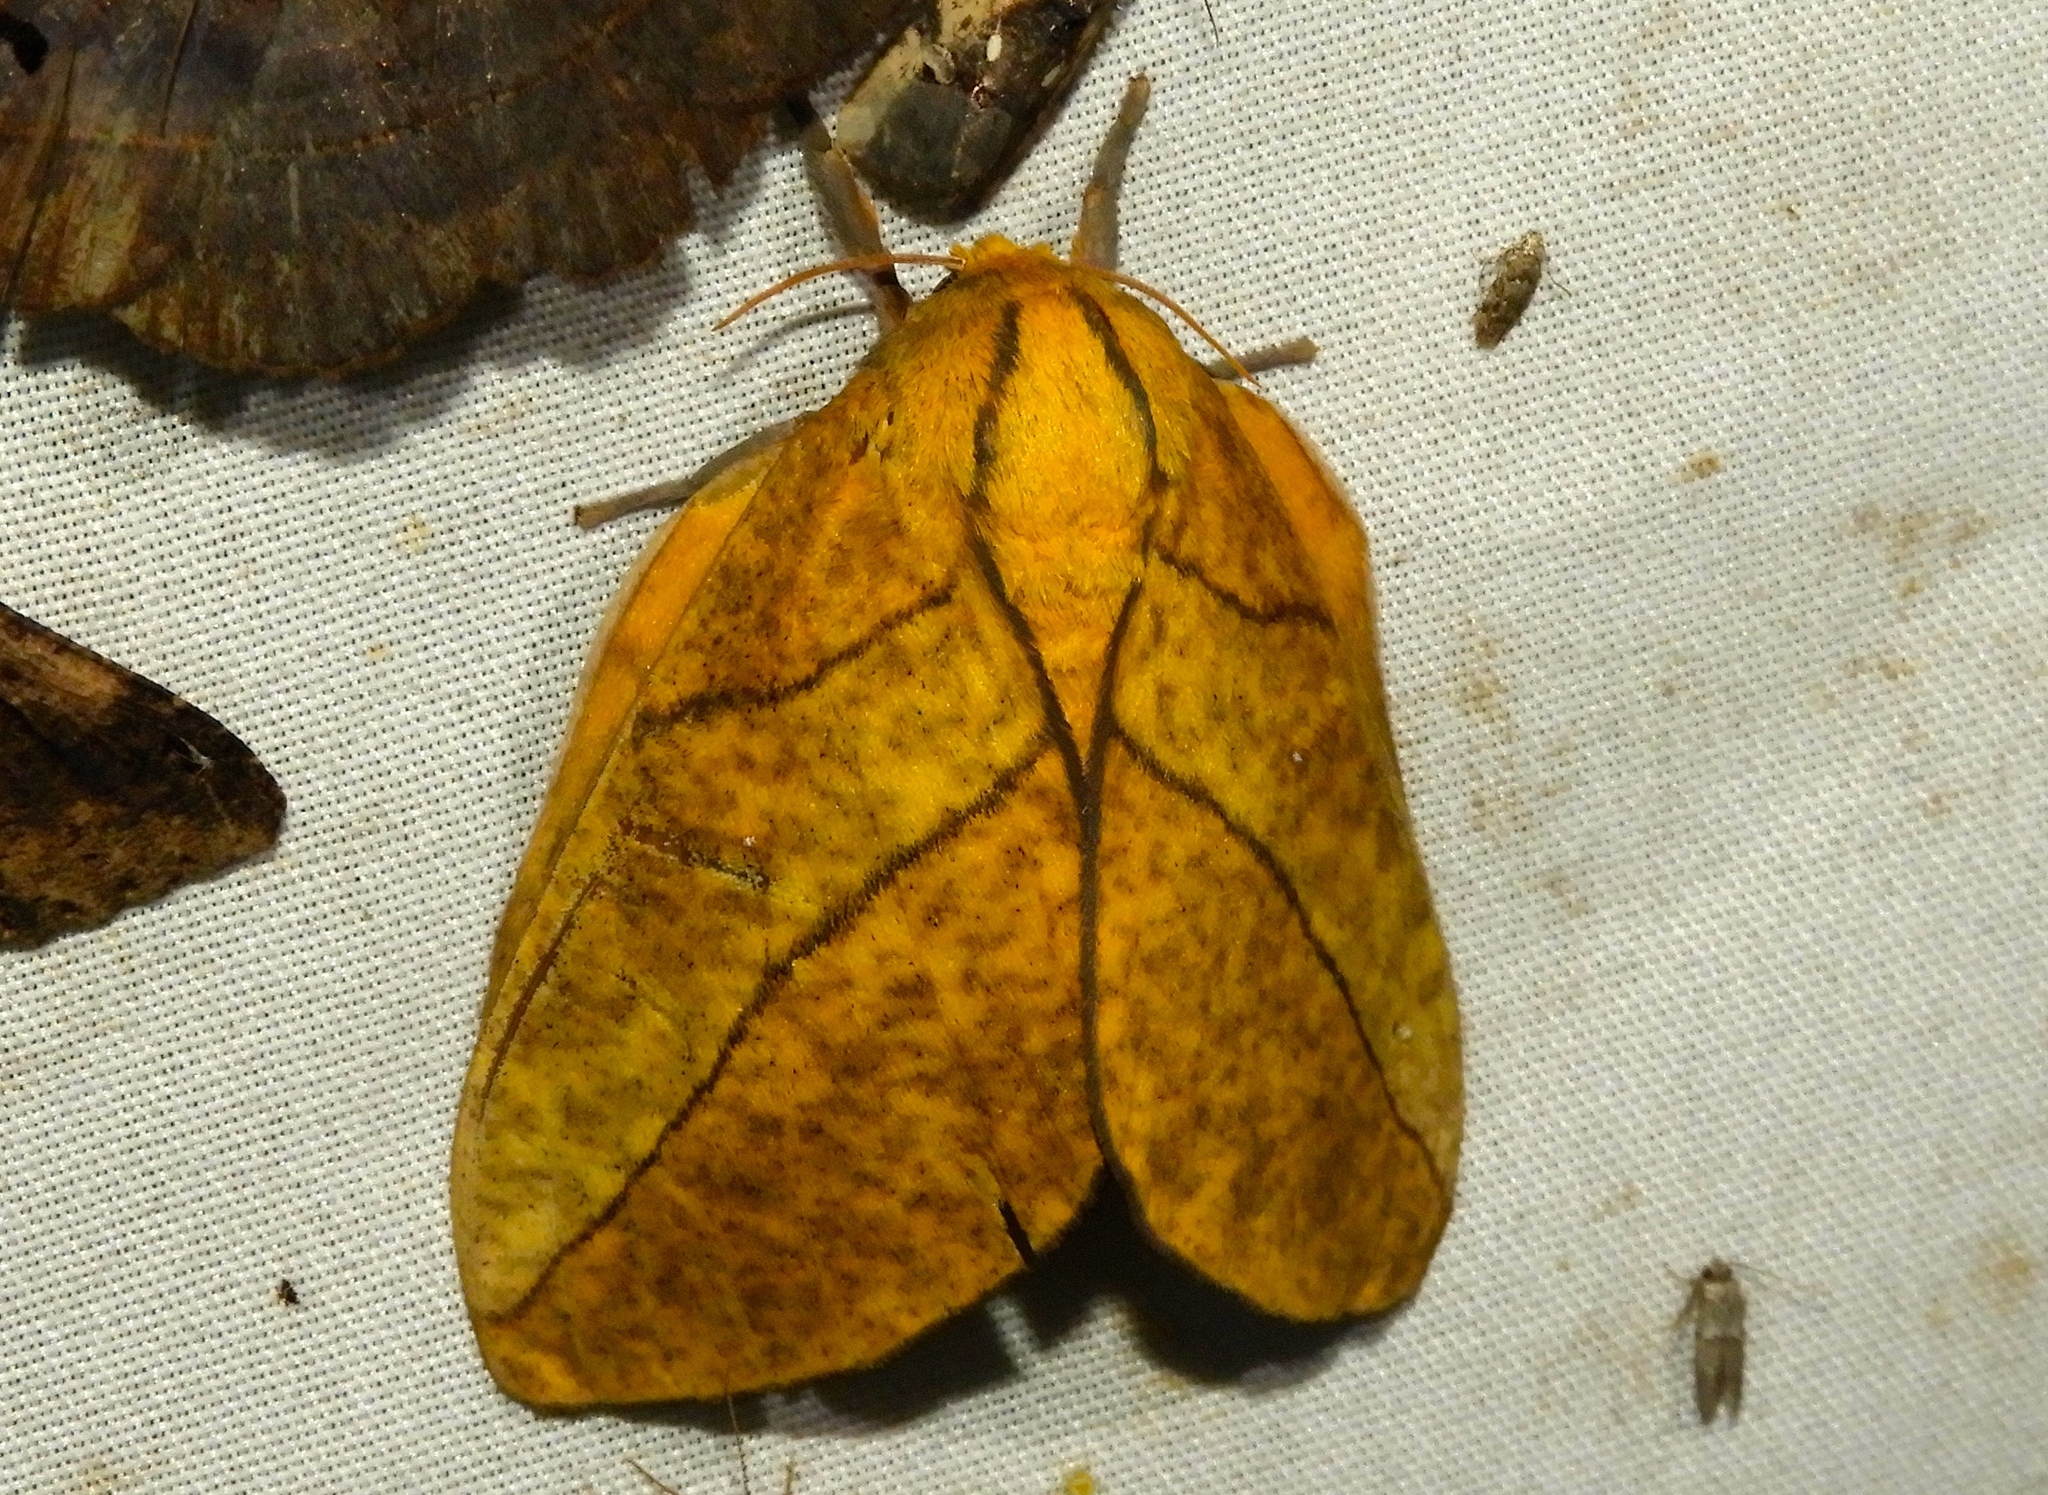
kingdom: Animalia
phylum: Arthropoda
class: Insecta
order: Lepidoptera
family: Saturniidae
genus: Adeloneivaia
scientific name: Adeloneivaia
